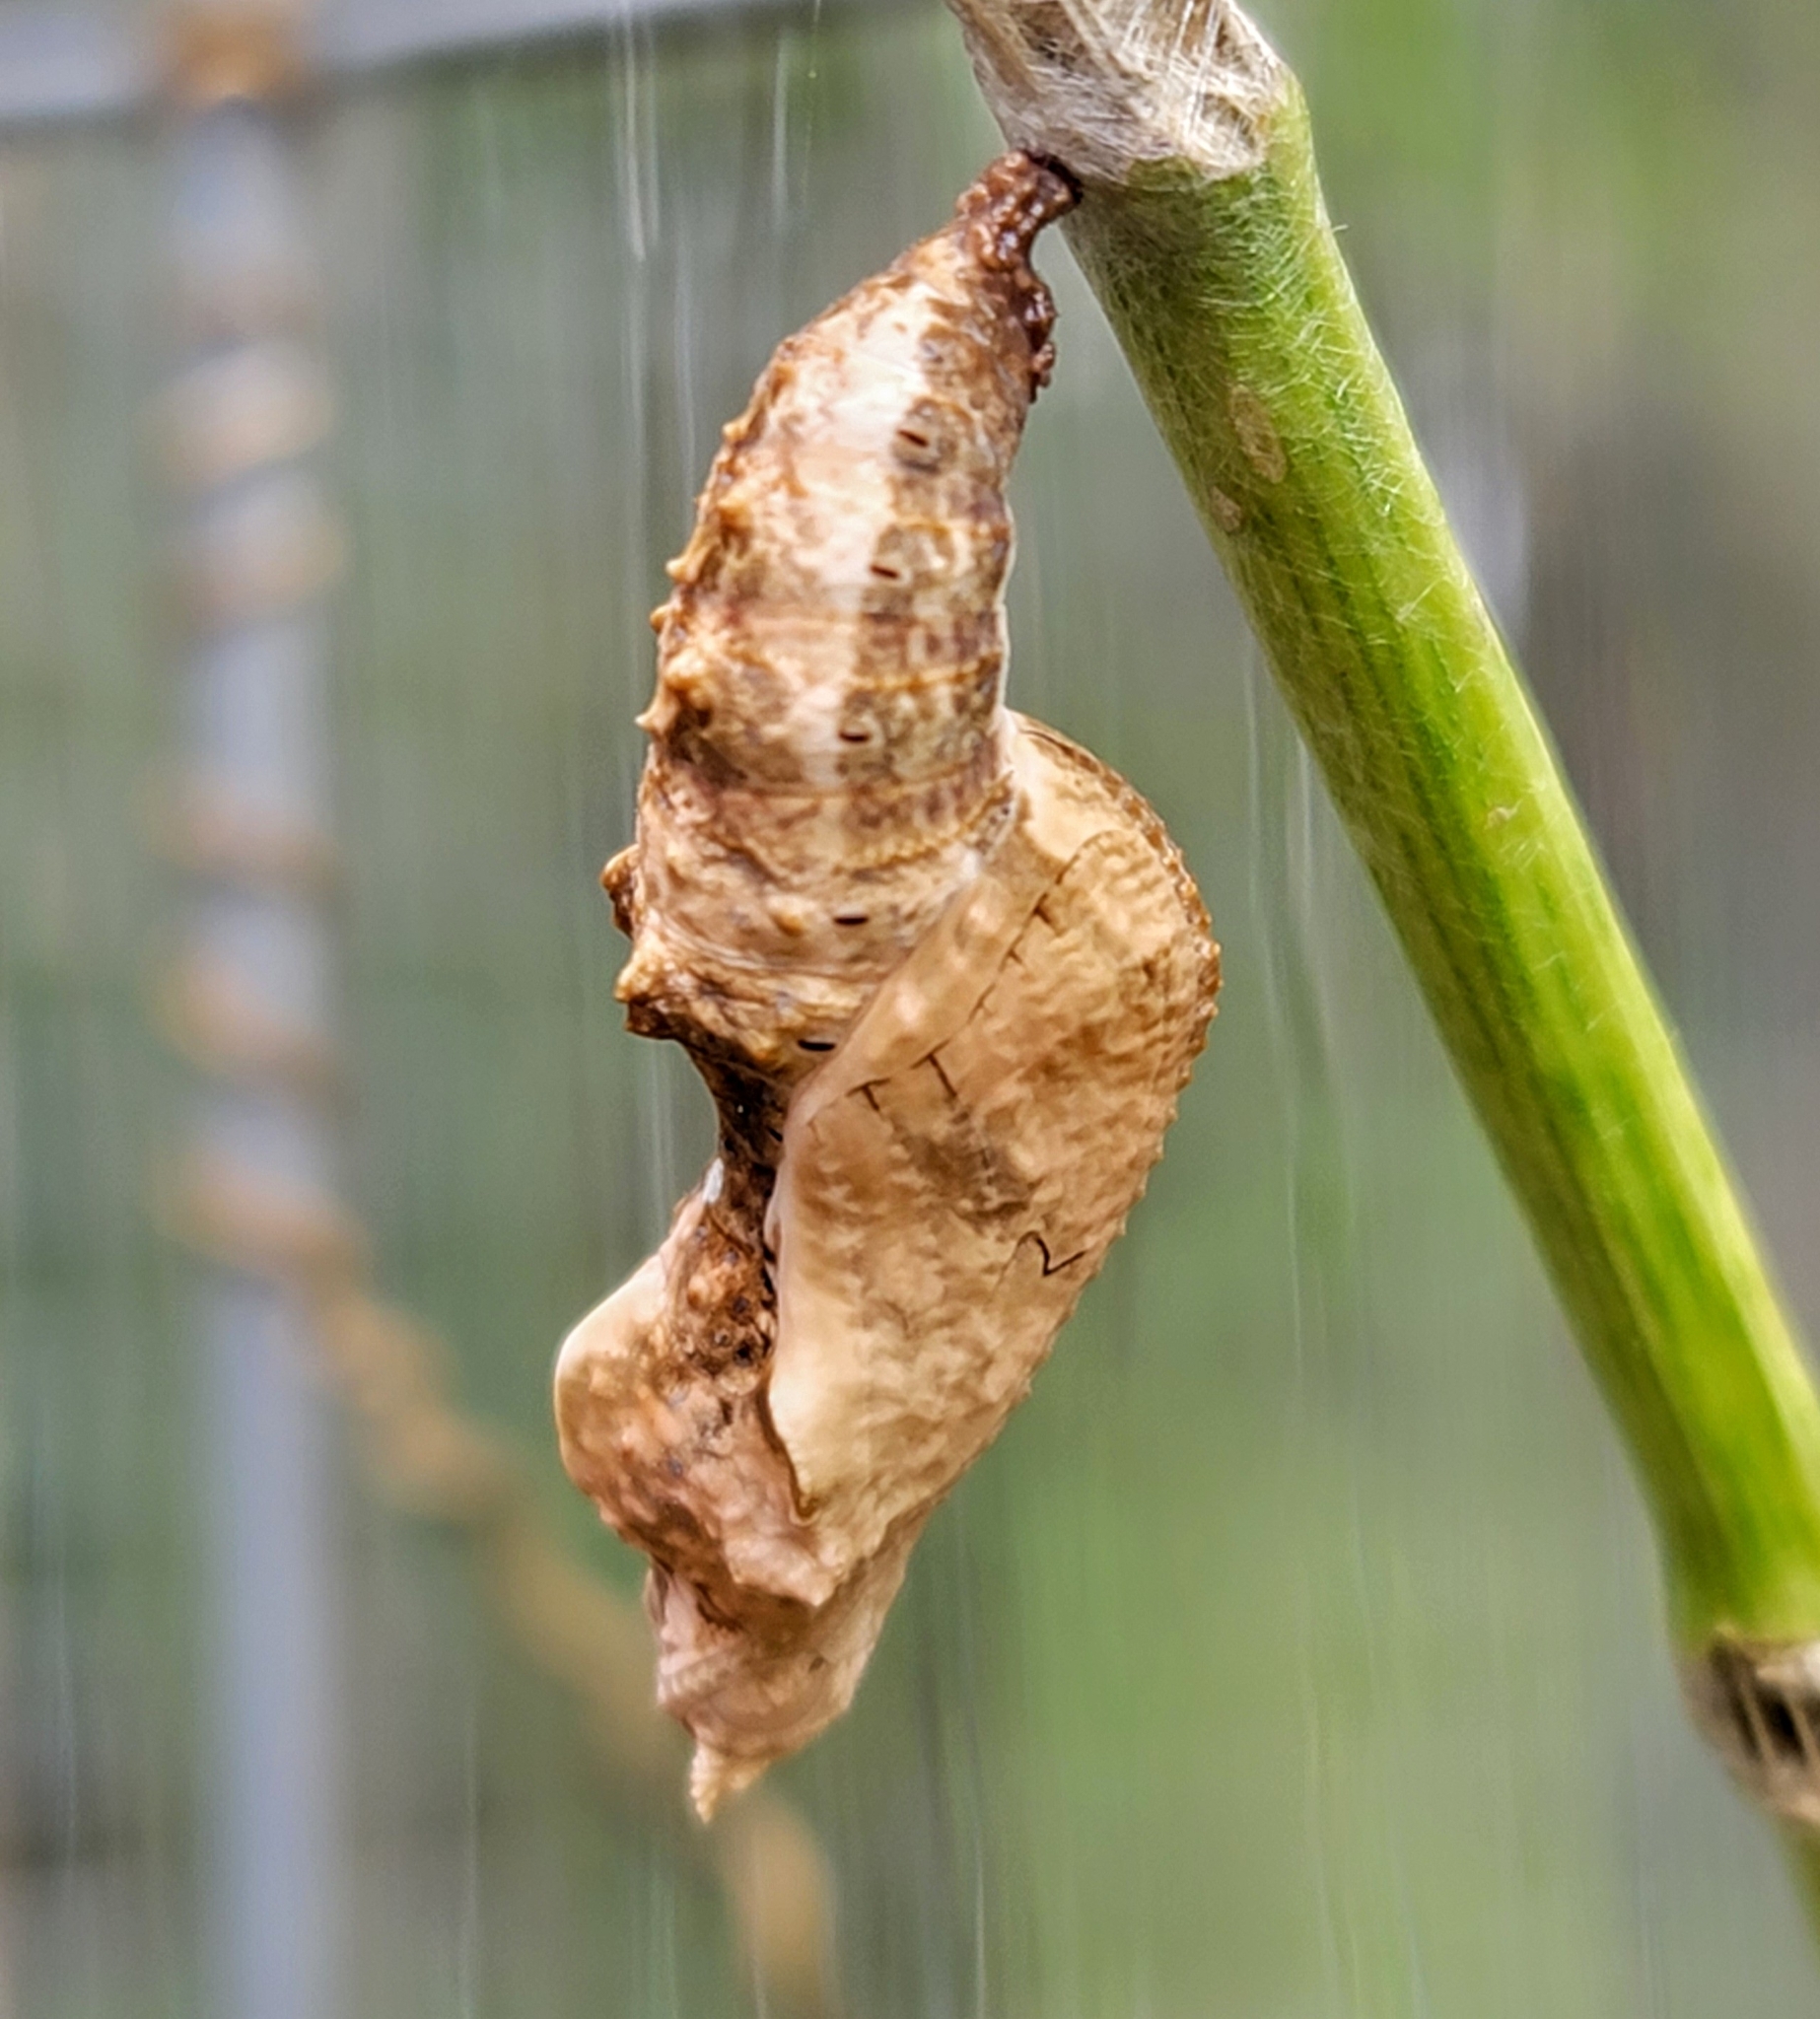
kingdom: Animalia
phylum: Arthropoda
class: Insecta
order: Lepidoptera
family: Nymphalidae
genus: Dione
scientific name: Dione vanillae
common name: Gulf fritillary
